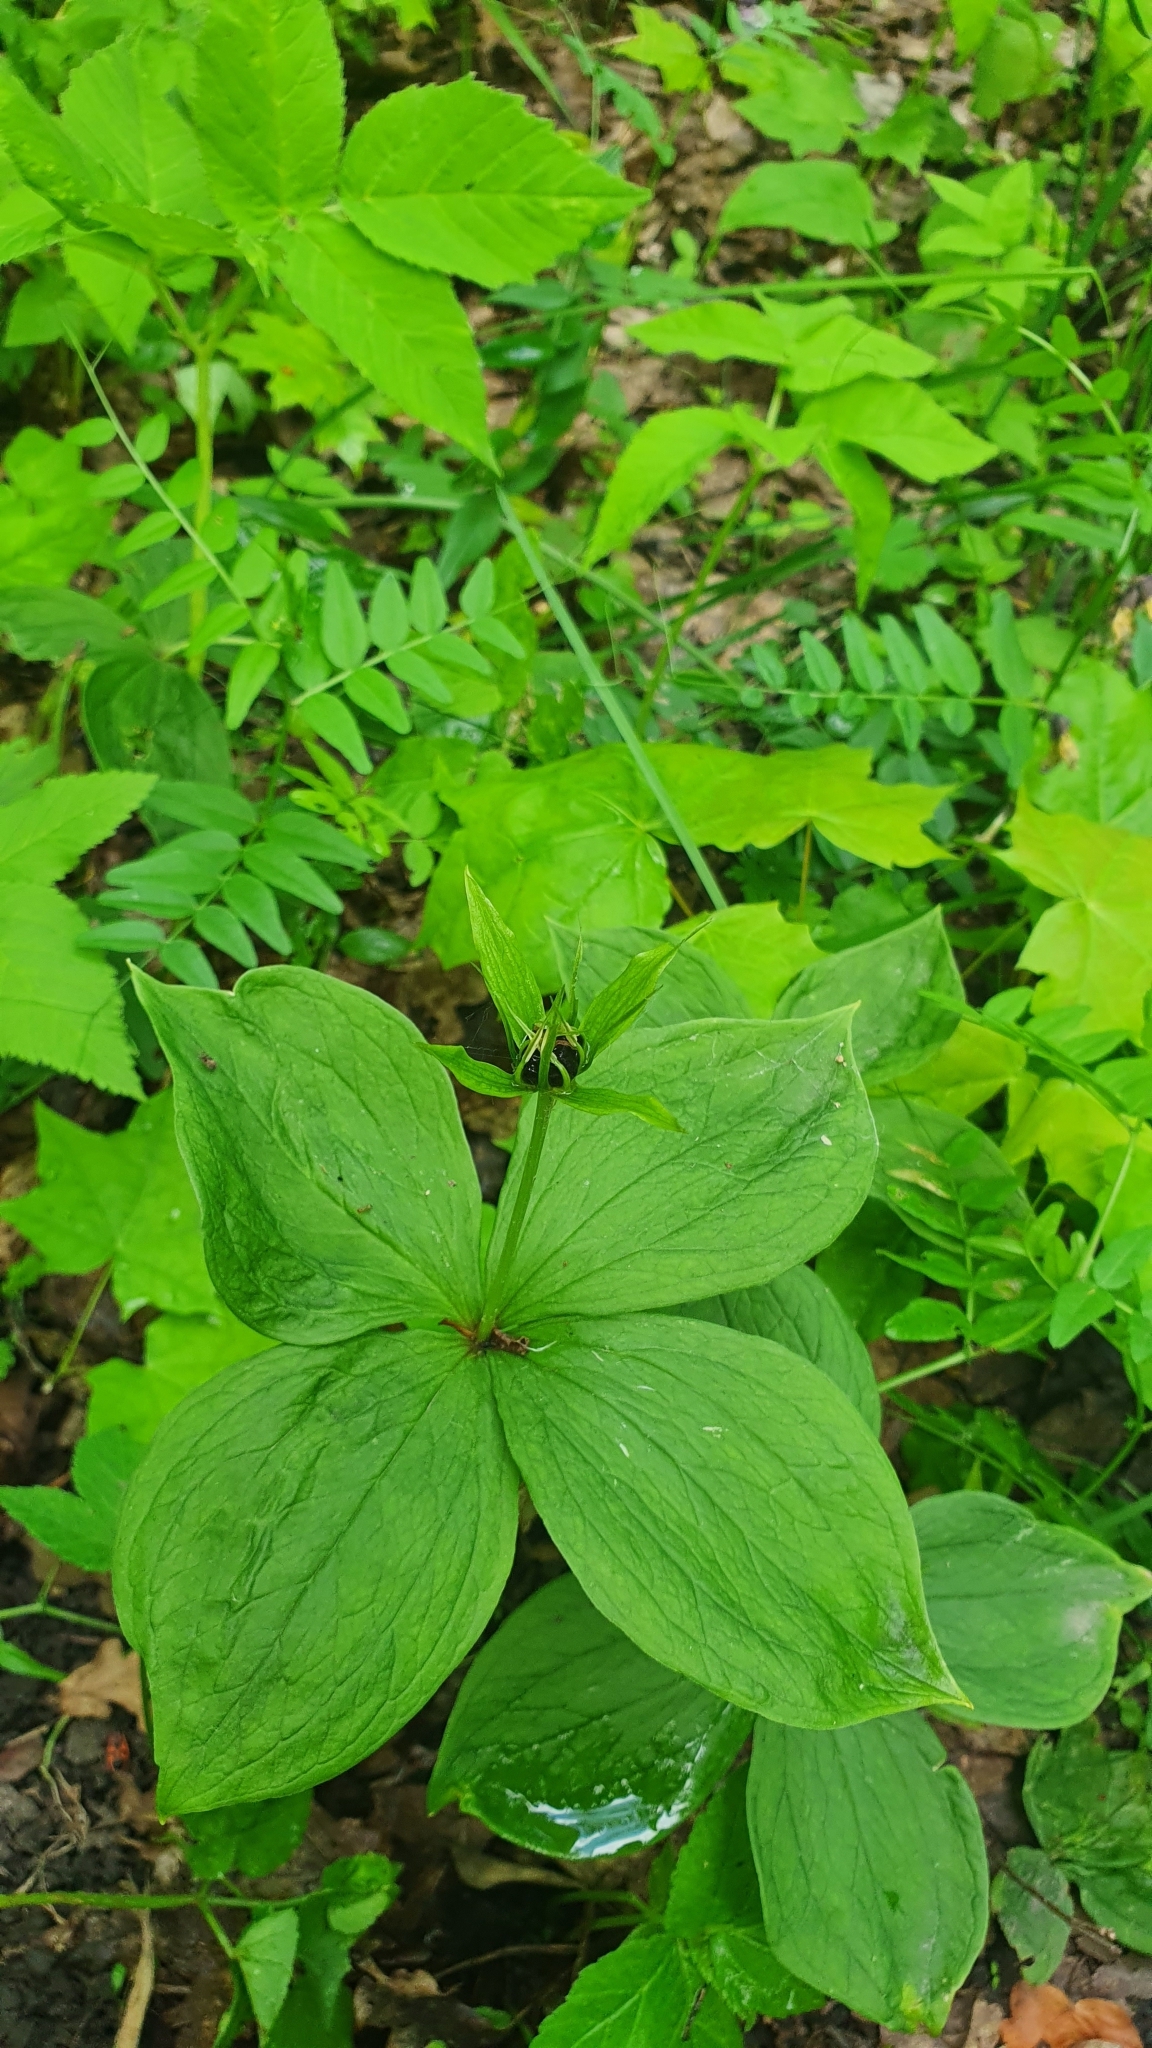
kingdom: Plantae
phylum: Tracheophyta
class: Liliopsida
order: Liliales
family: Melanthiaceae
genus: Paris
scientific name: Paris quadrifolia
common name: Herb-paris
